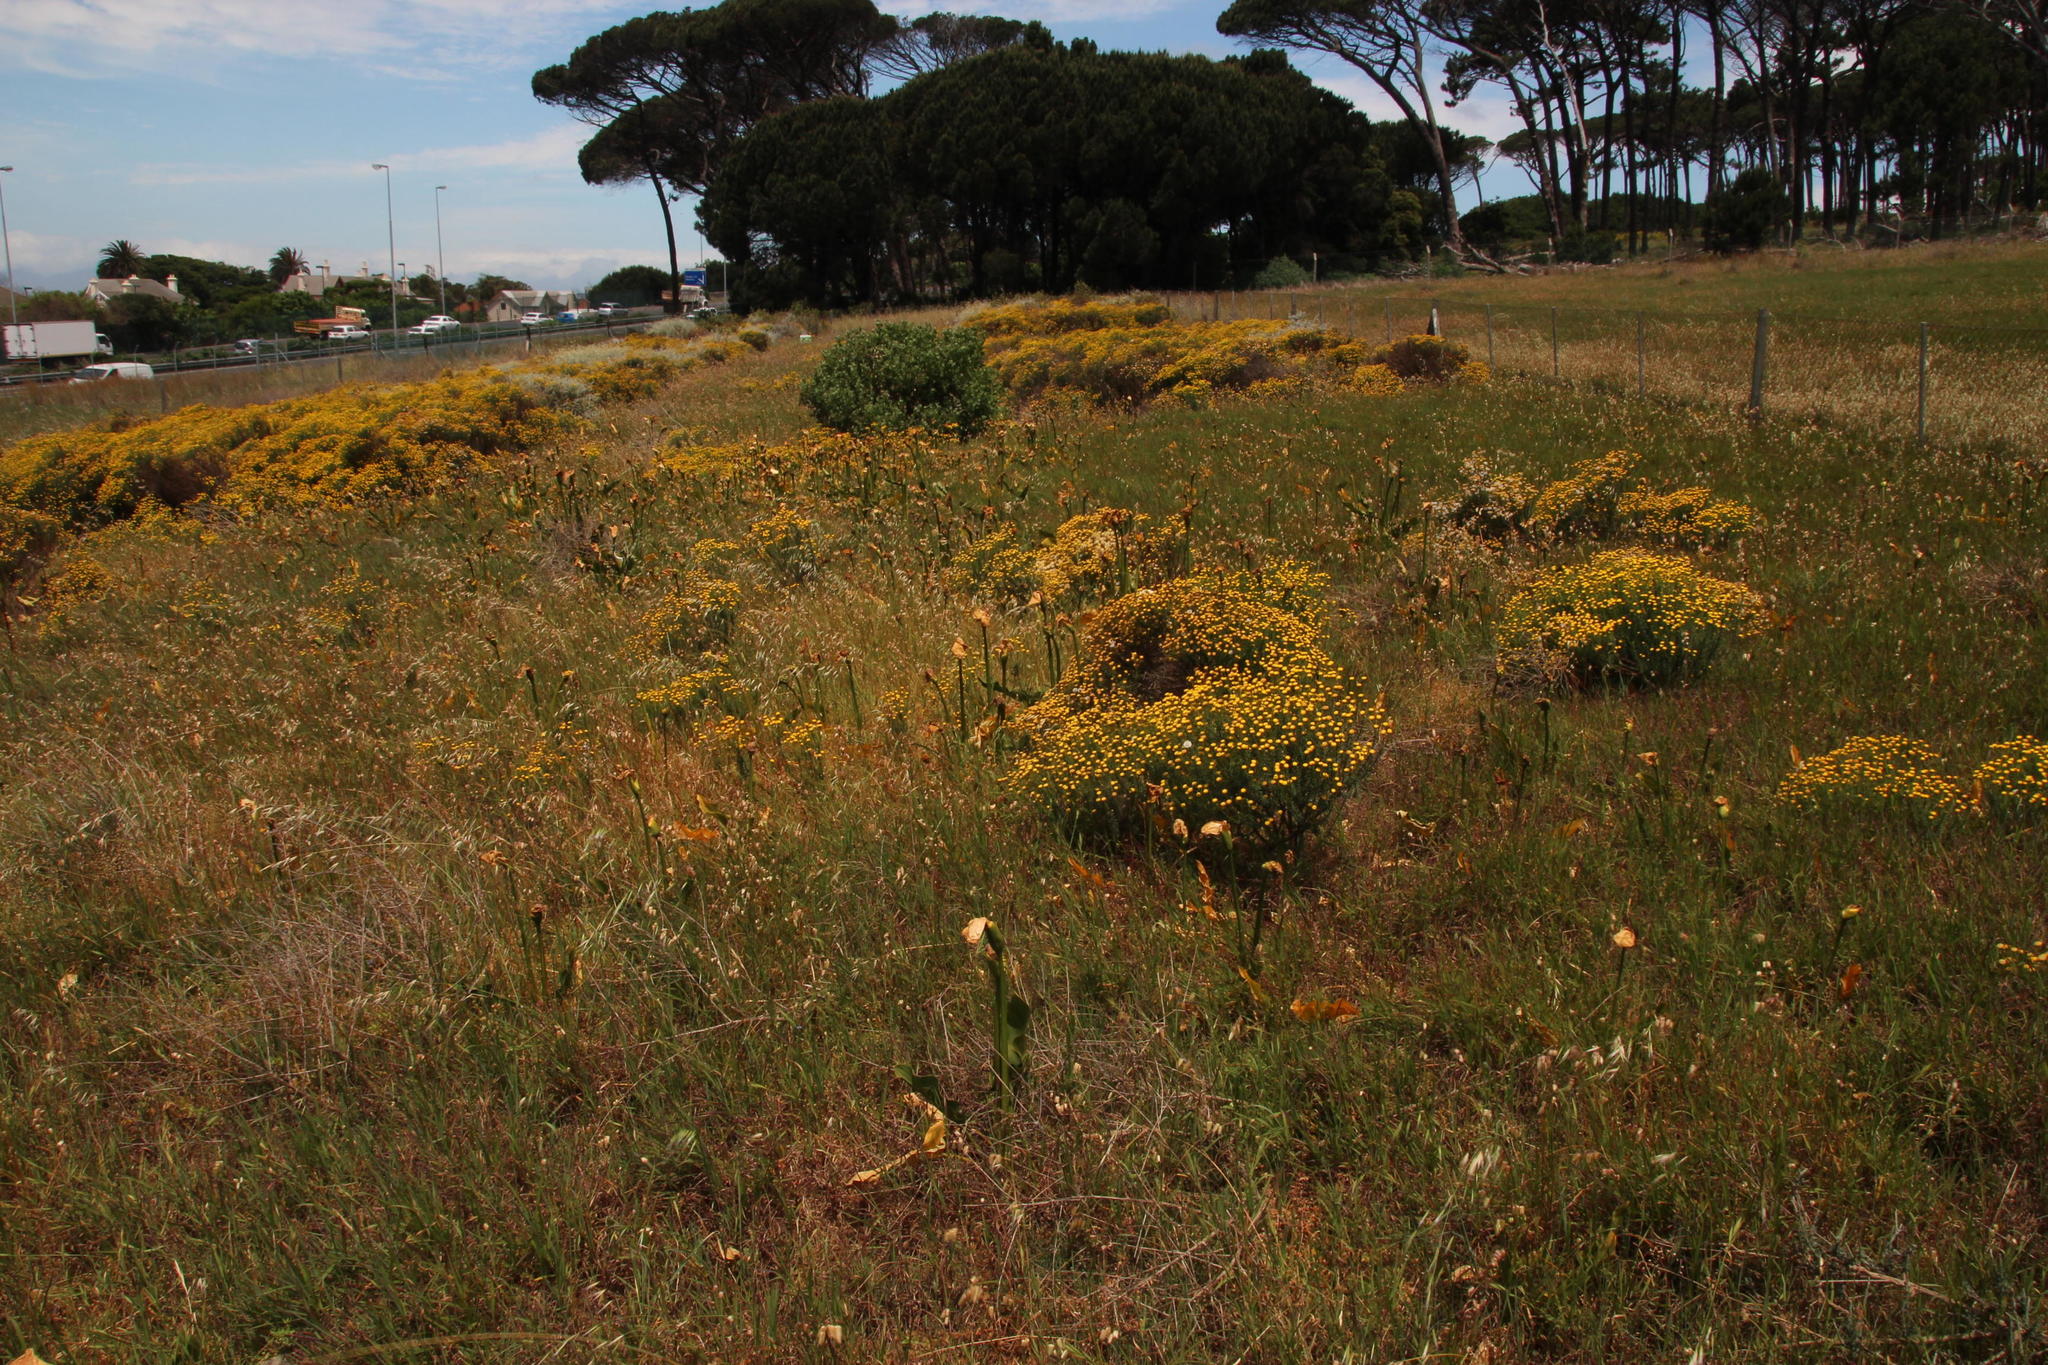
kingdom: Plantae
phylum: Tracheophyta
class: Liliopsida
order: Alismatales
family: Araceae
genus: Zantedeschia
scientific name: Zantedeschia aethiopica
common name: Altar-lily
